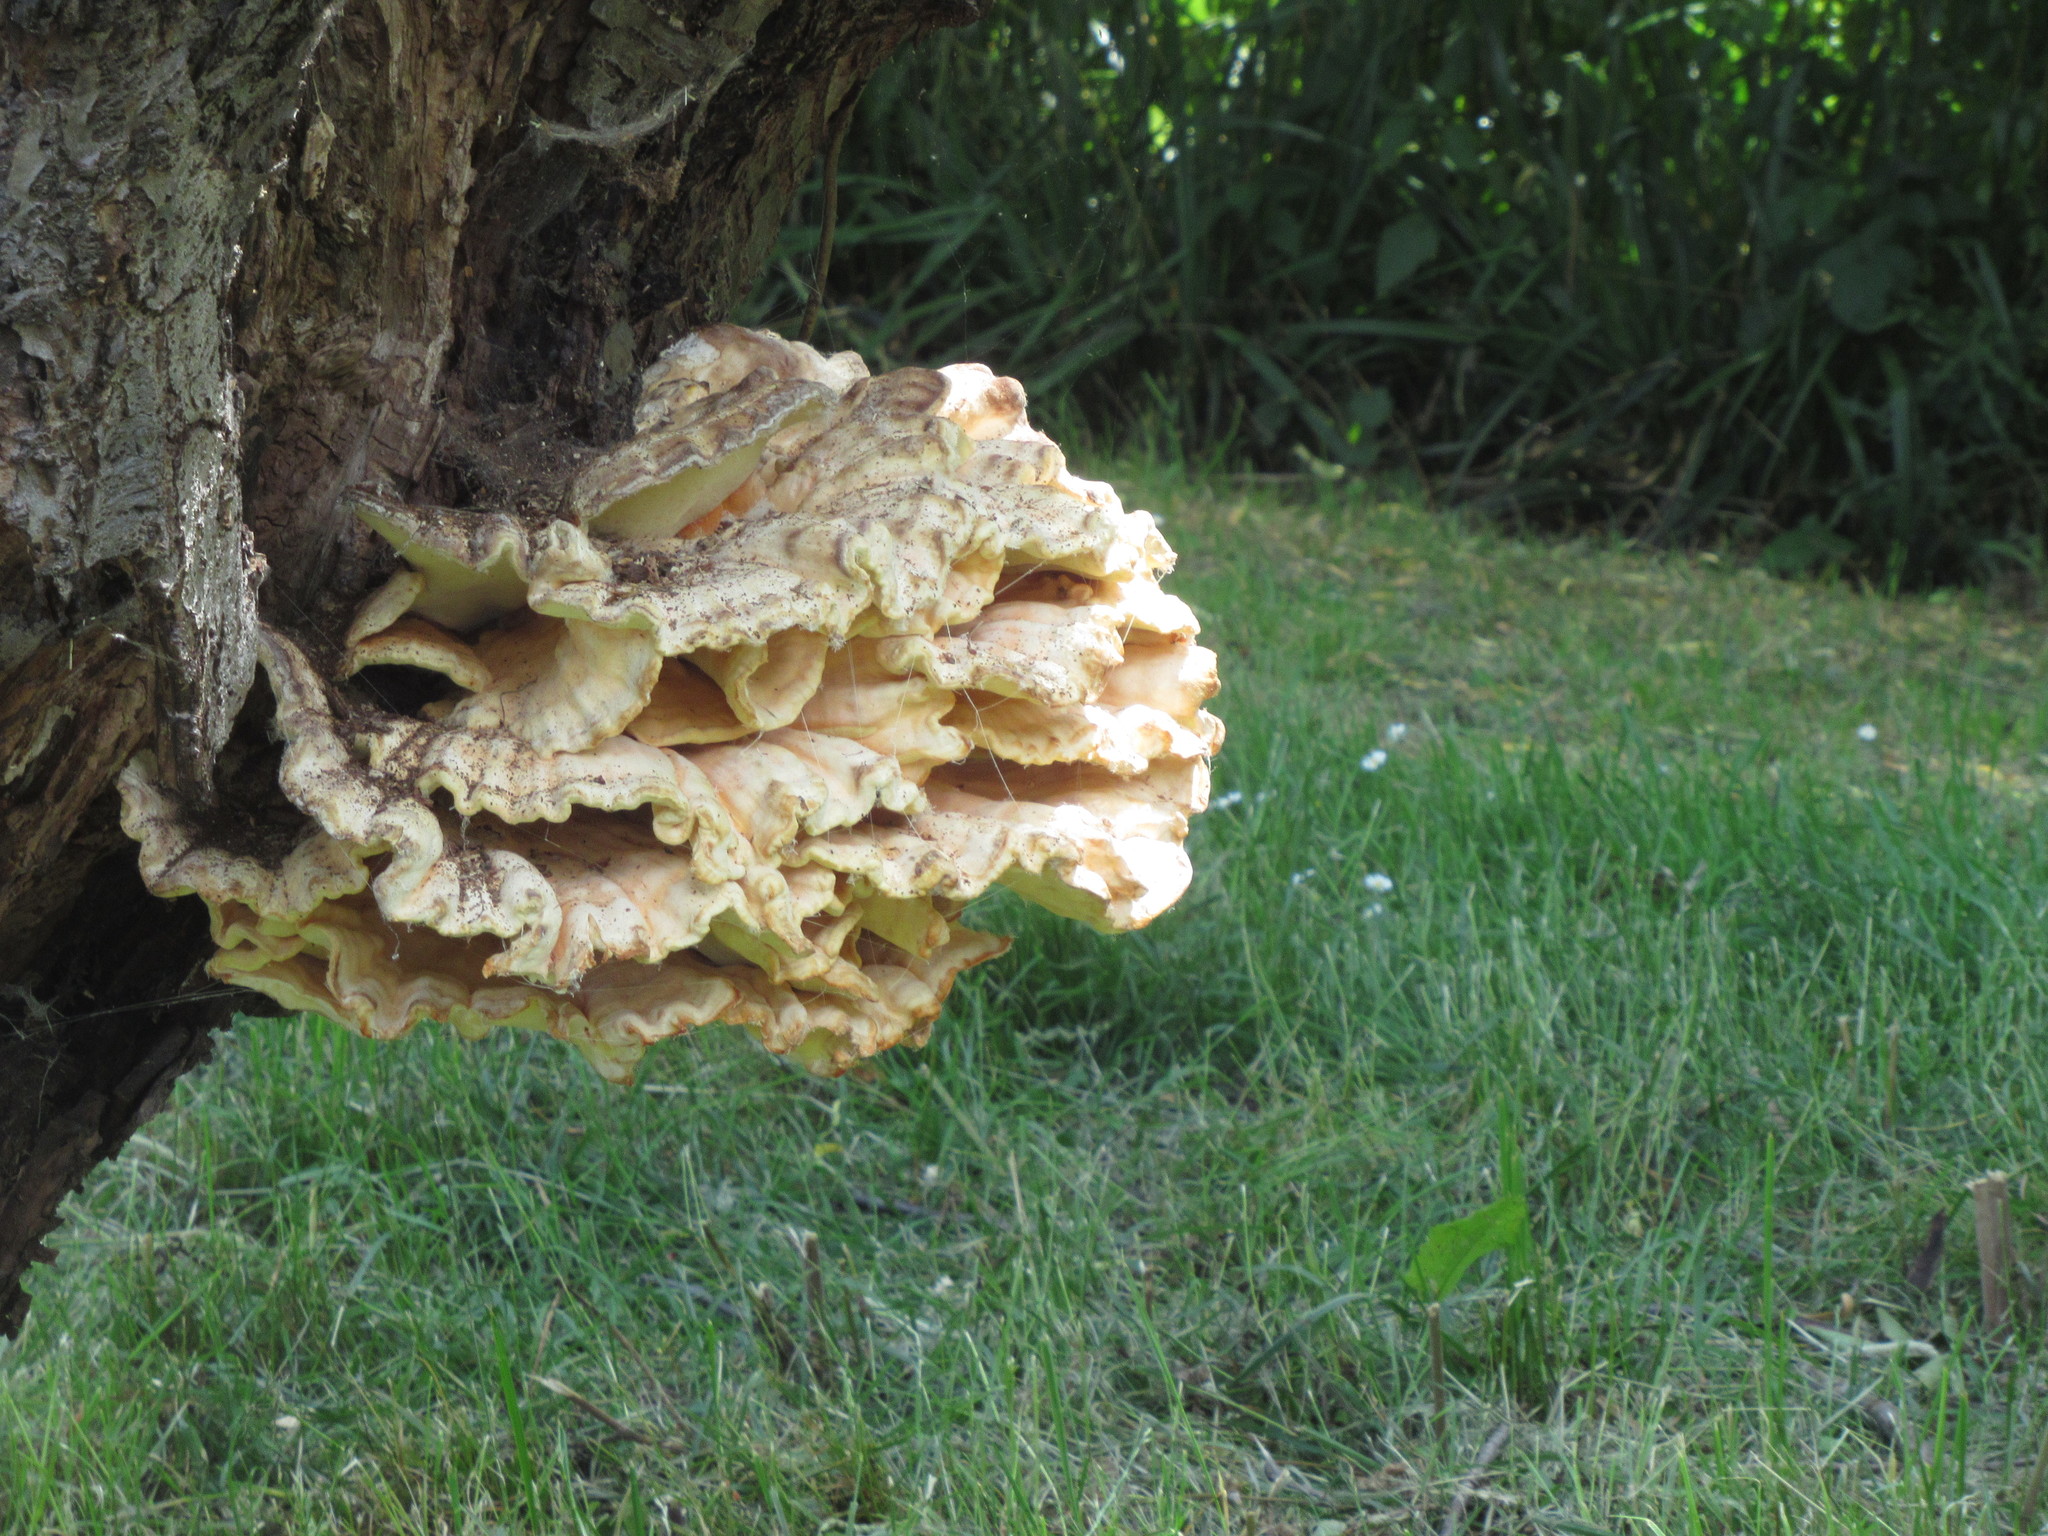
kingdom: Fungi
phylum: Basidiomycota
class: Agaricomycetes
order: Polyporales
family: Laetiporaceae
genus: Laetiporus
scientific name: Laetiporus sulphureus
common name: Chicken of the woods
